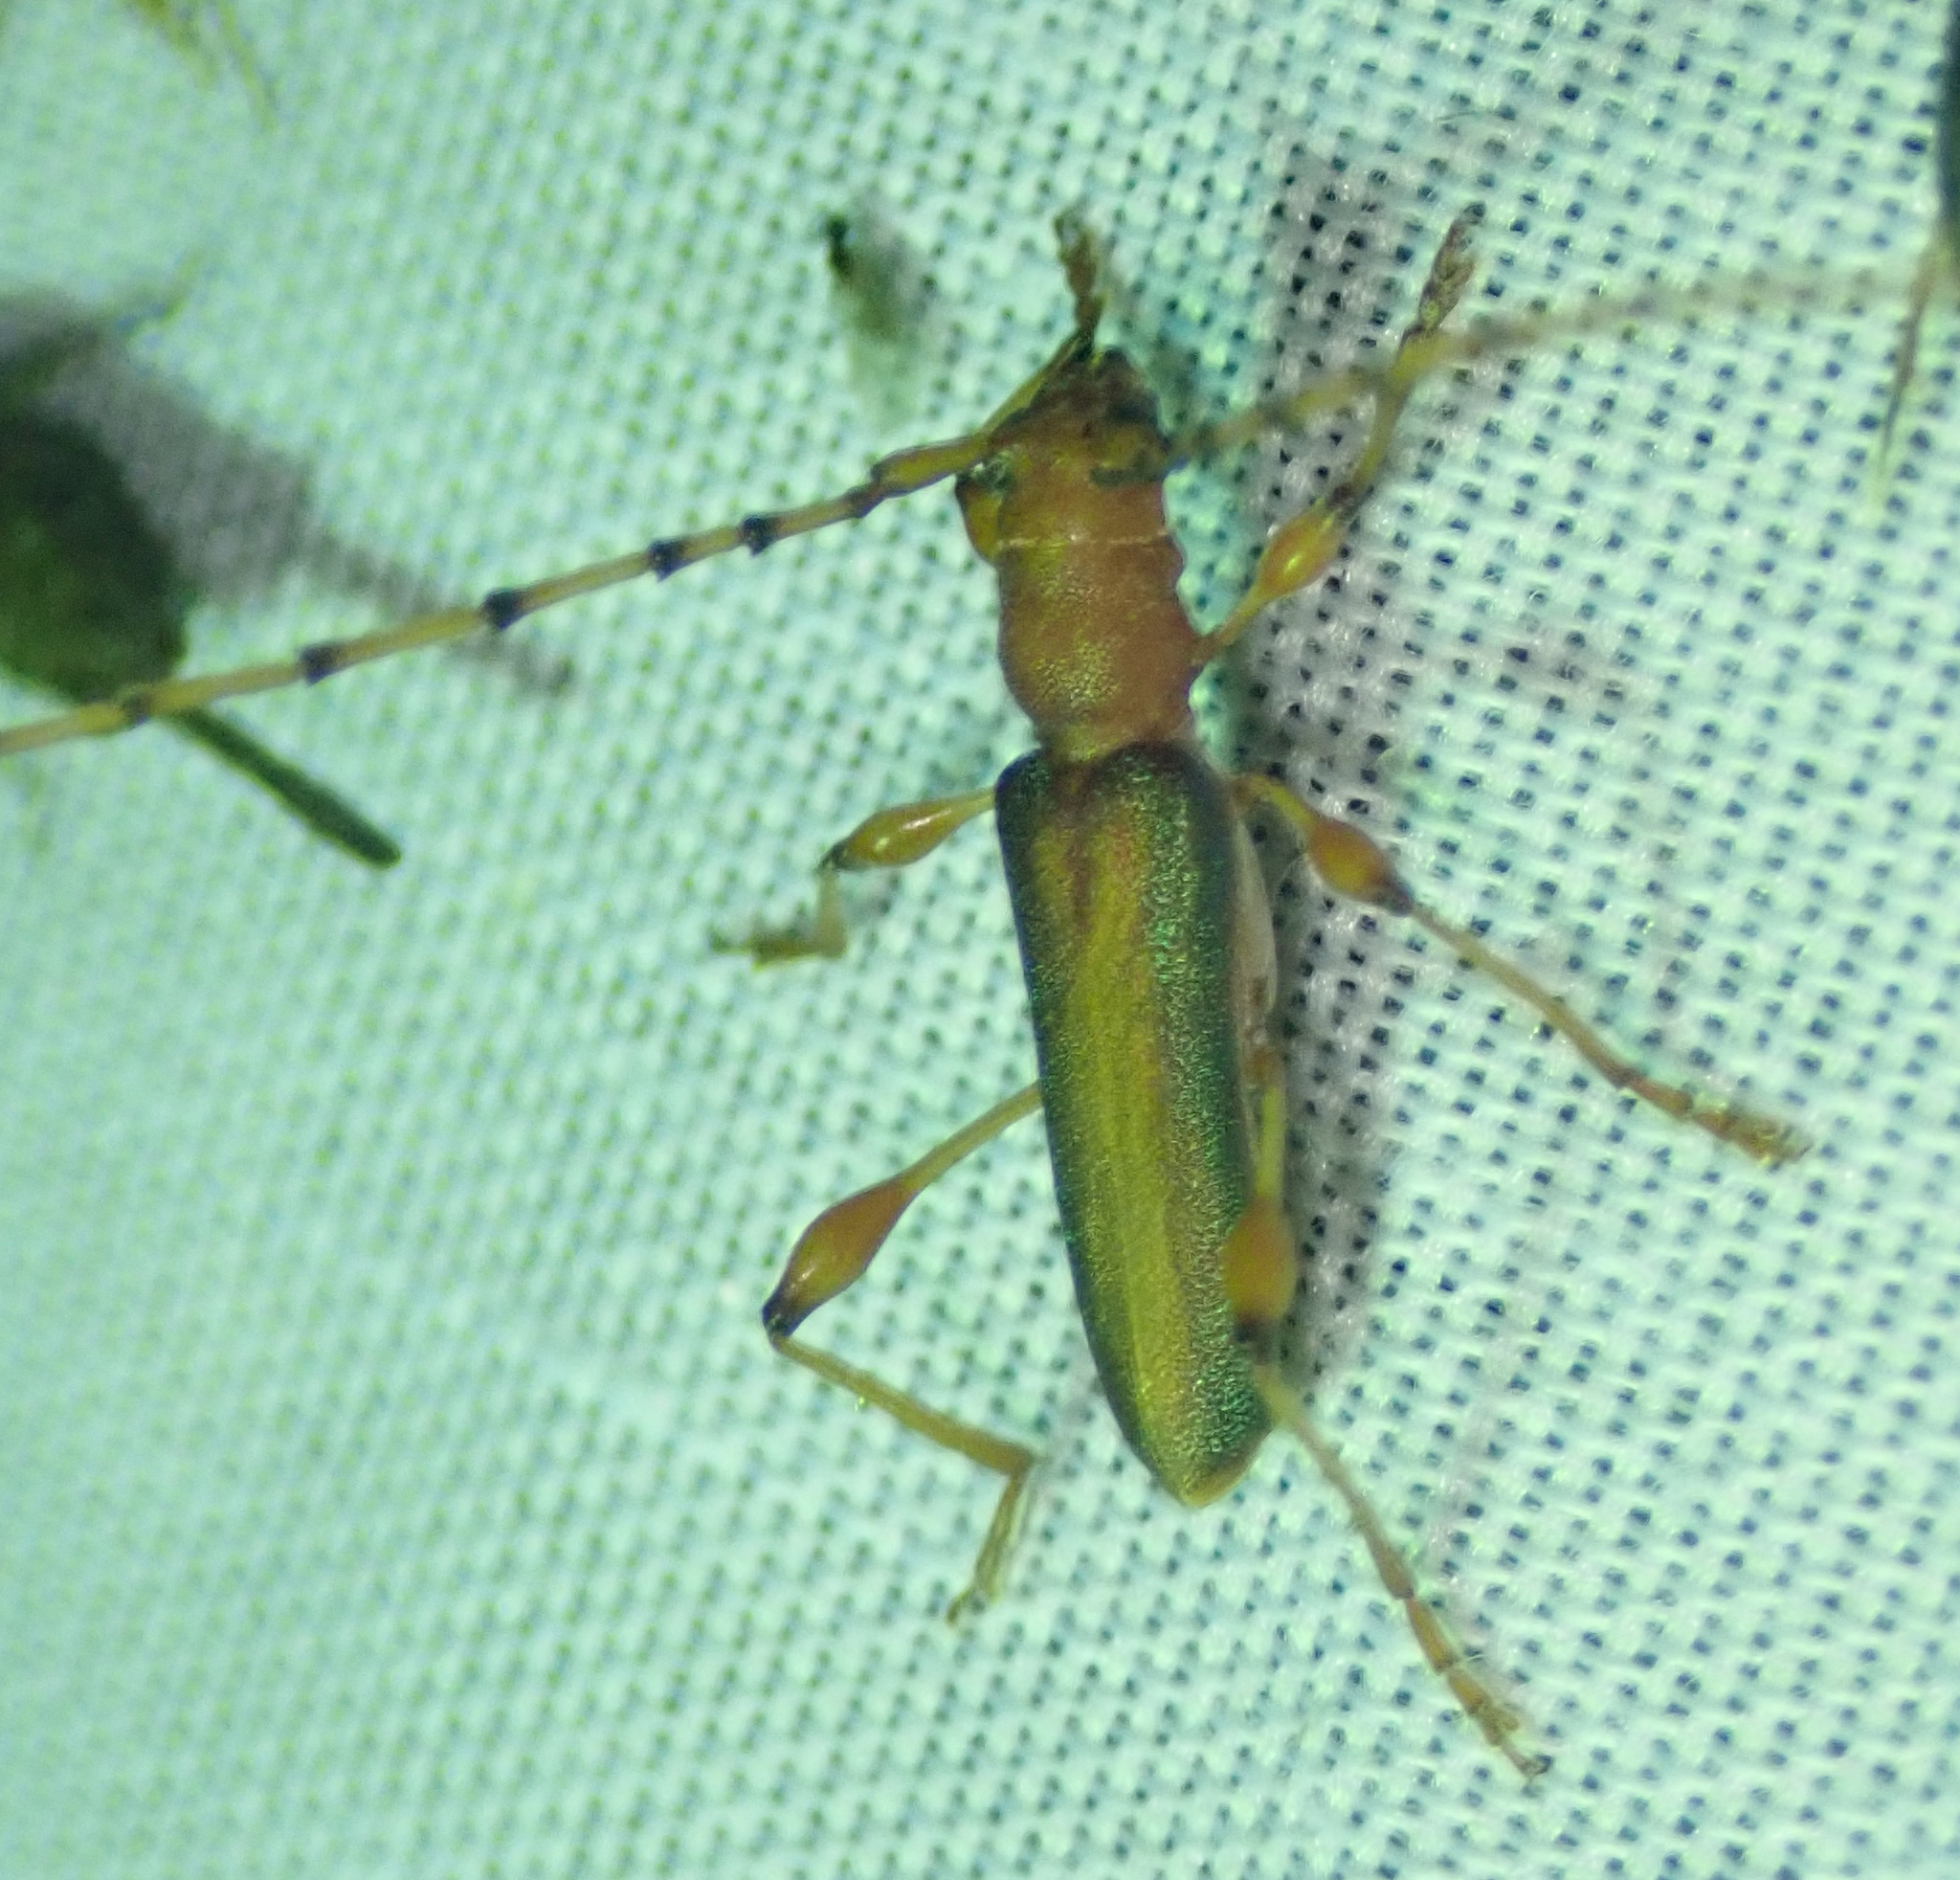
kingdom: Animalia
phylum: Arthropoda
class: Insecta
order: Coleoptera
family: Cerambycidae
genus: Cordylomera
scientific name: Cordylomera annulicornis
